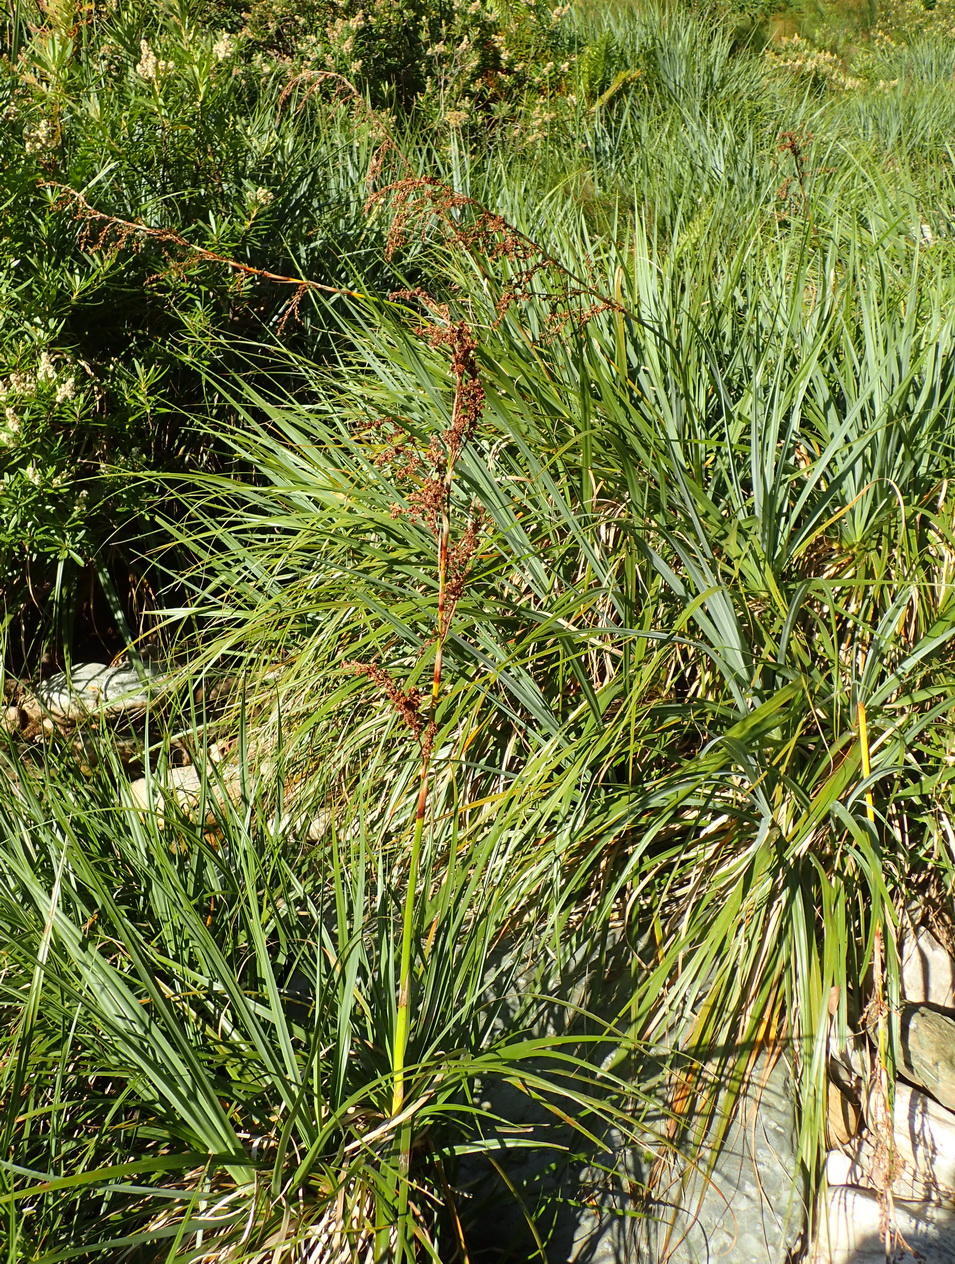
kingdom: Plantae
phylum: Tracheophyta
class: Liliopsida
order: Poales
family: Cyperaceae
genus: Cladium
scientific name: Cladium mariscus
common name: Great fen-sedge
